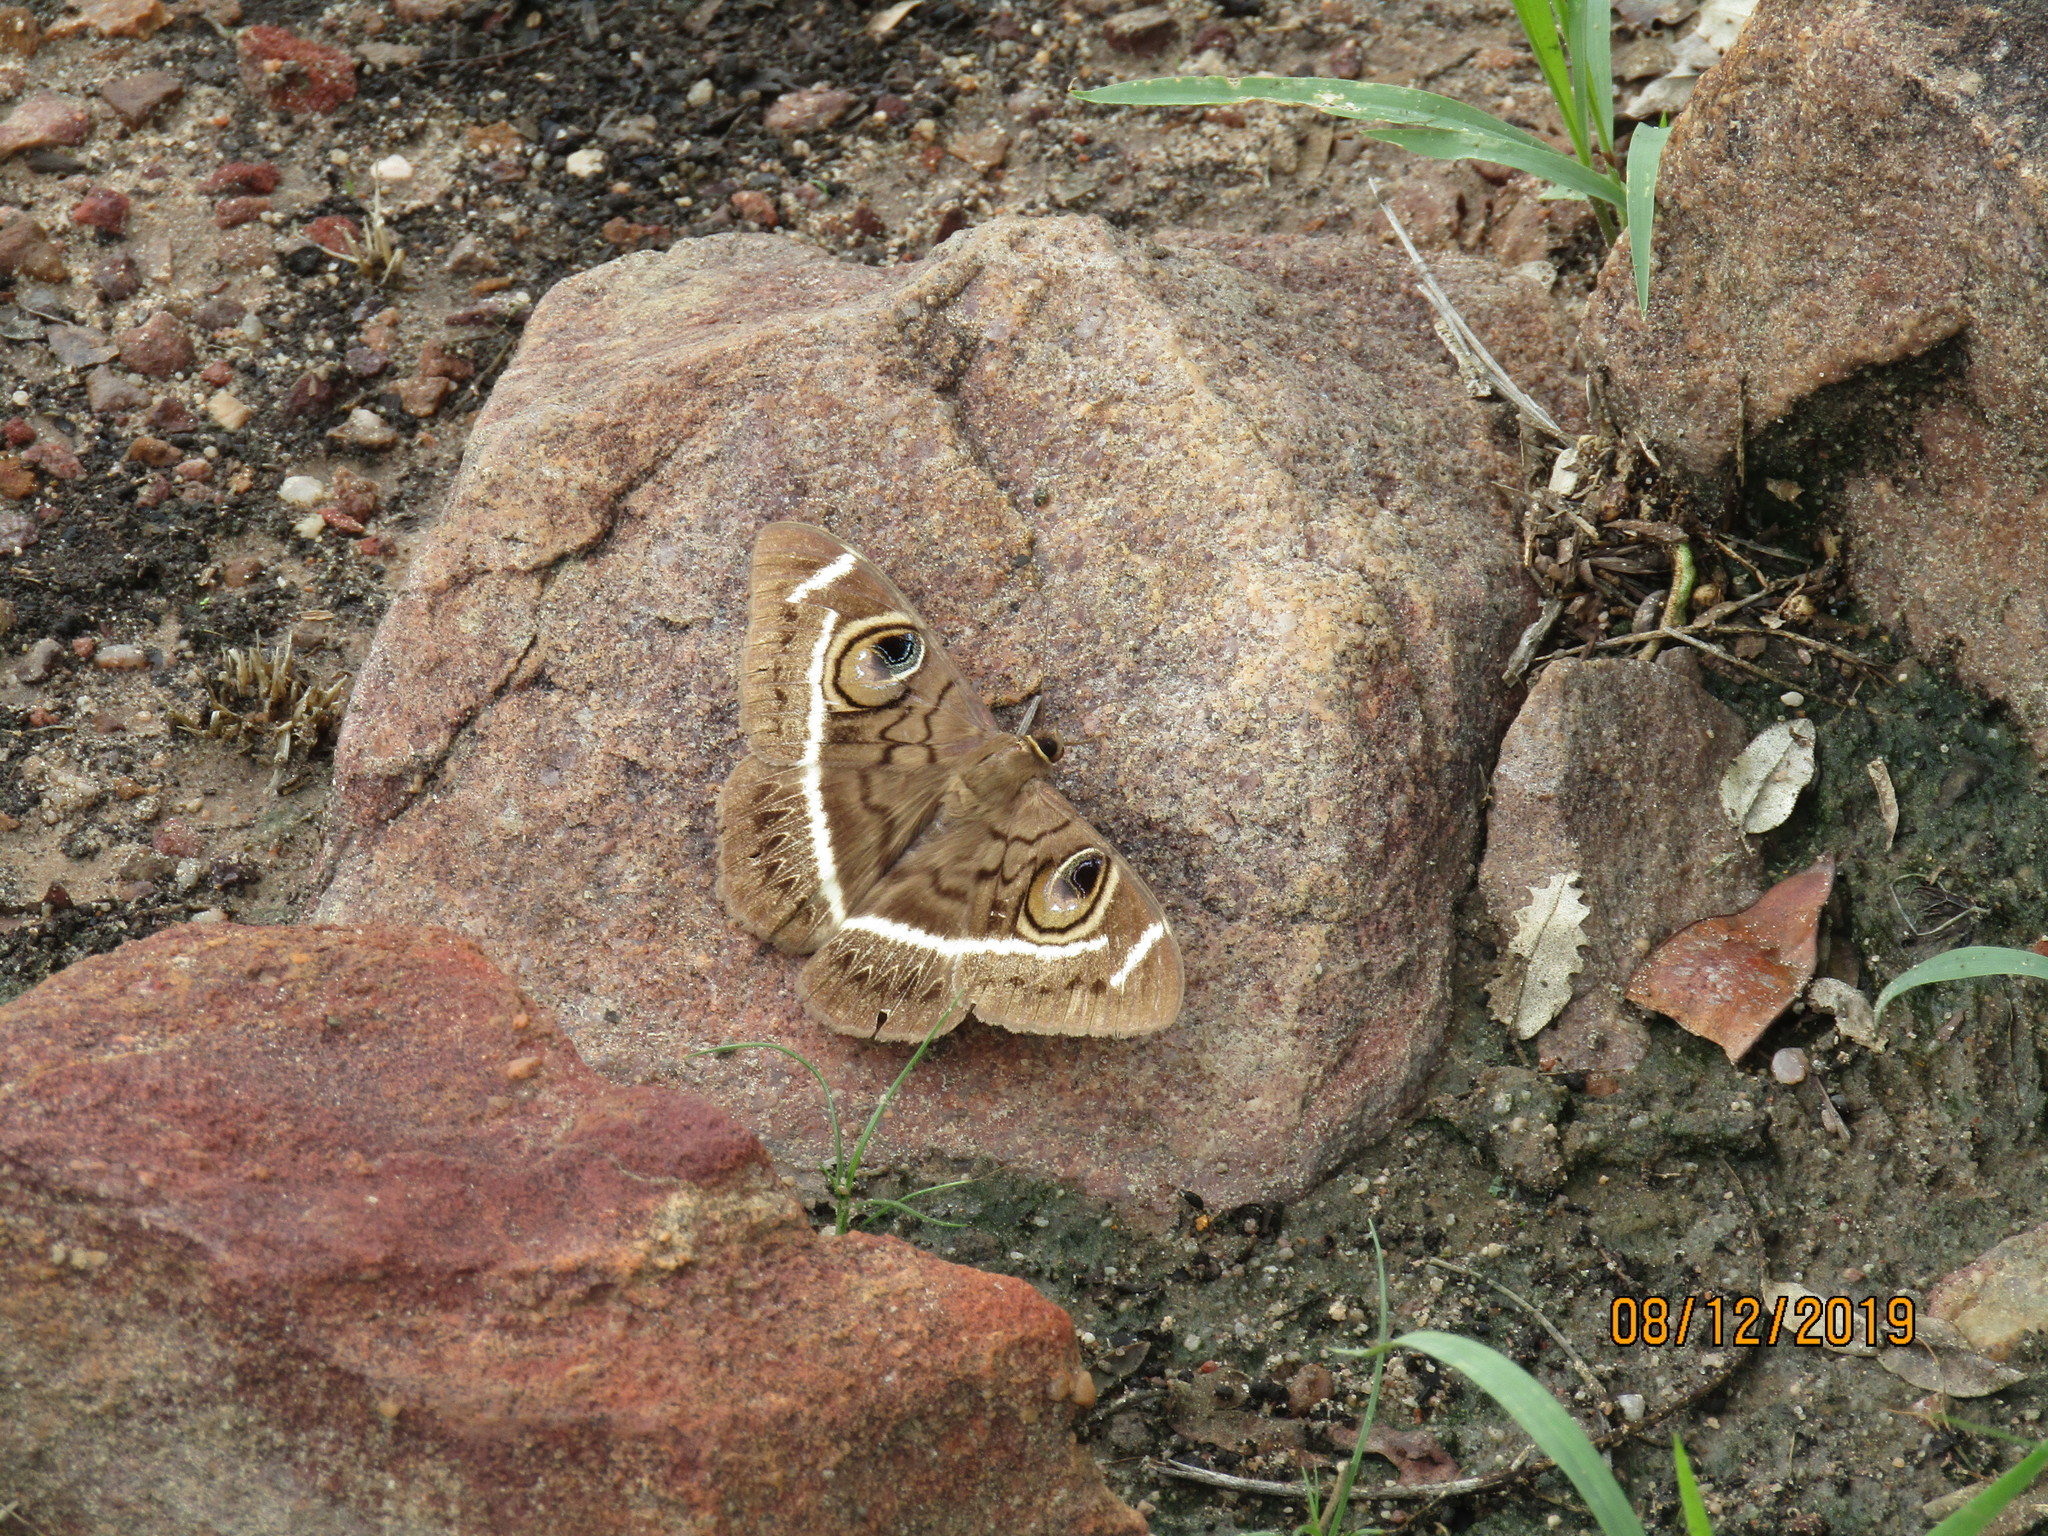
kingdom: Animalia
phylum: Arthropoda
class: Insecta
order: Lepidoptera
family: Erebidae
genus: Cyligramma
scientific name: Cyligramma latona
